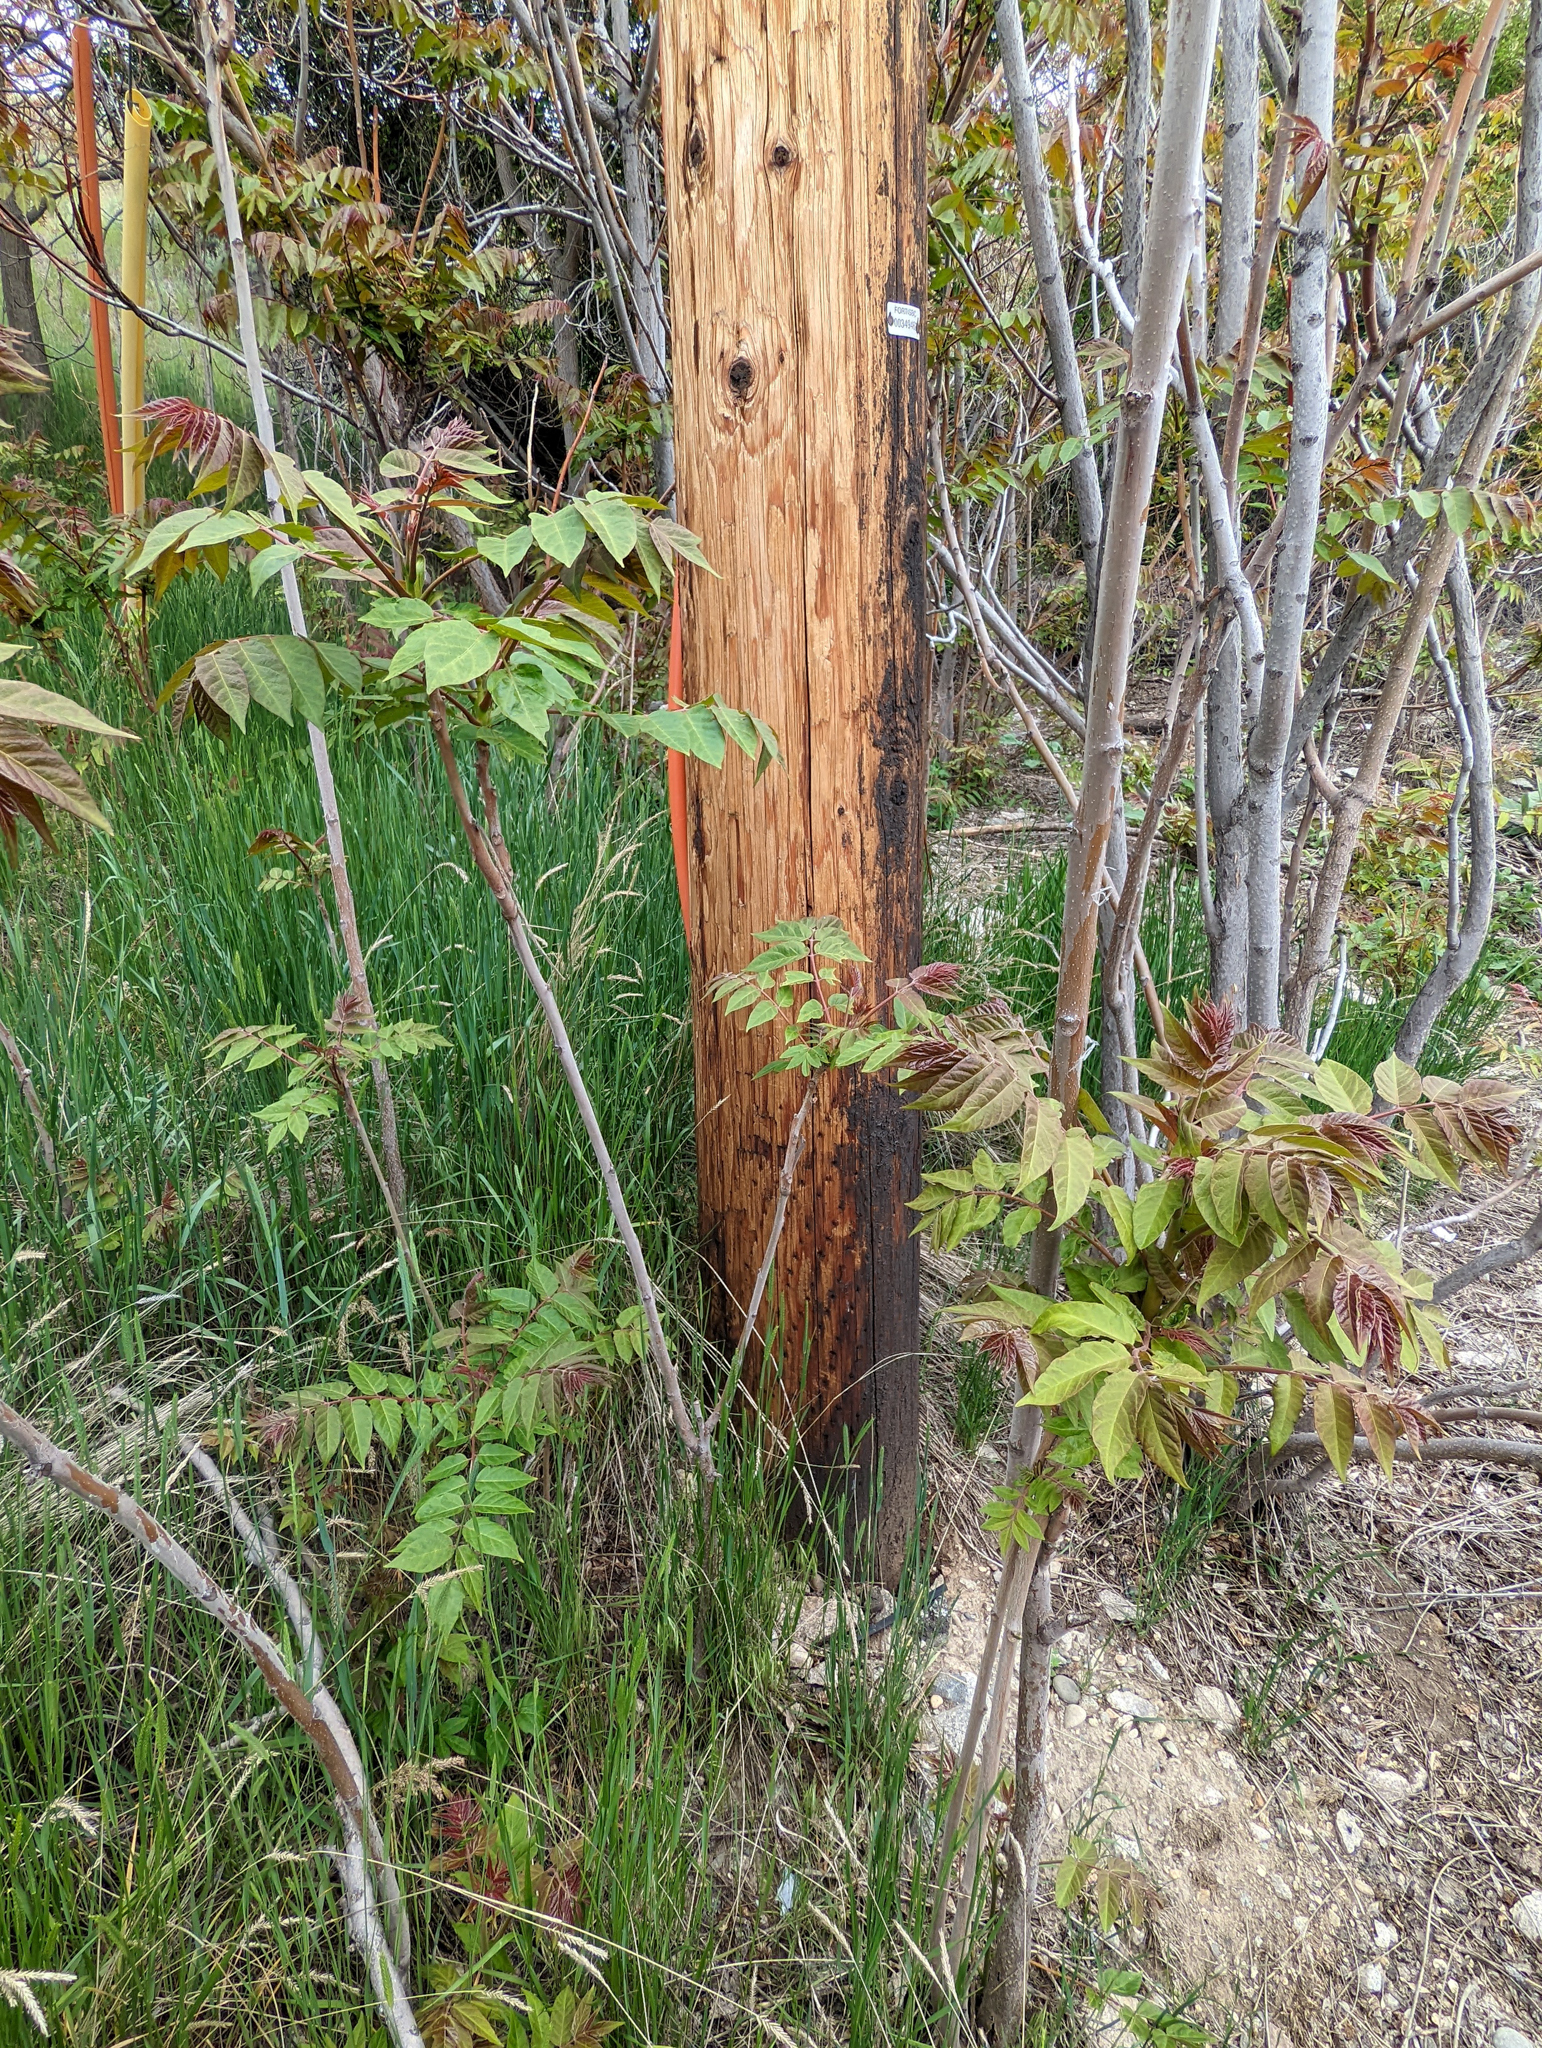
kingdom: Plantae
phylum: Tracheophyta
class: Magnoliopsida
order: Sapindales
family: Simaroubaceae
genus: Ailanthus
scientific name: Ailanthus altissima
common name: Tree-of-heaven
